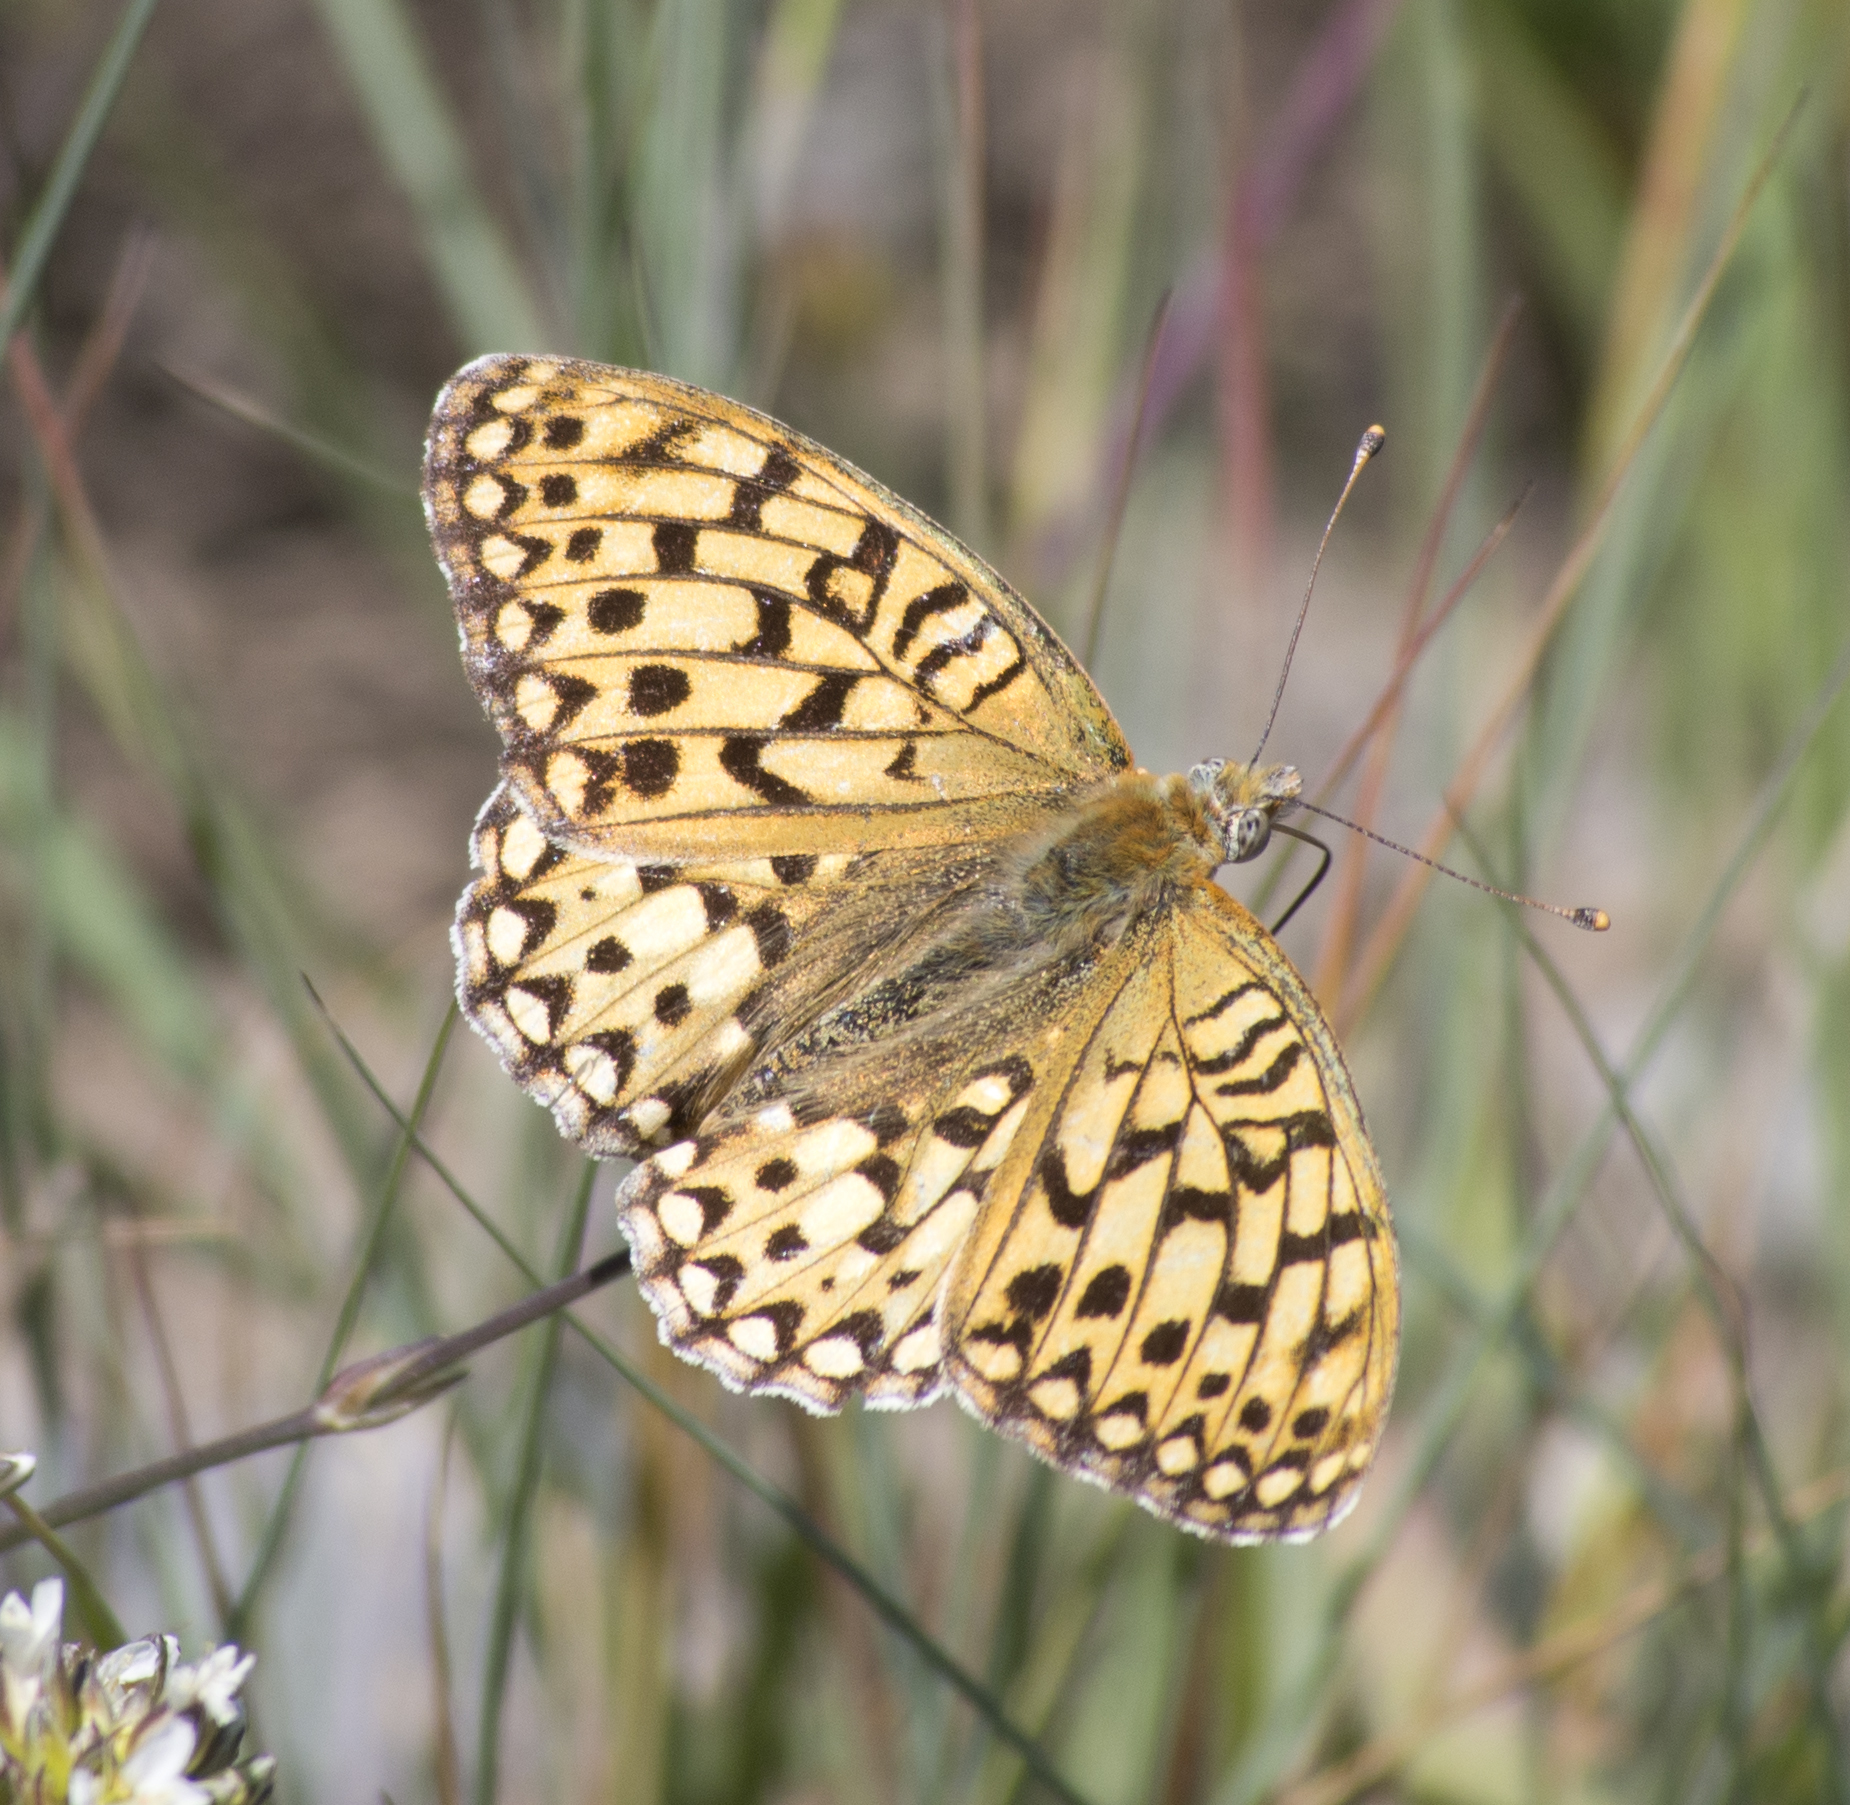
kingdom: Animalia
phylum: Arthropoda
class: Insecta
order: Lepidoptera
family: Nymphalidae
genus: Speyeria
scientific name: Speyeria callippe
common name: Callippe fritillary
